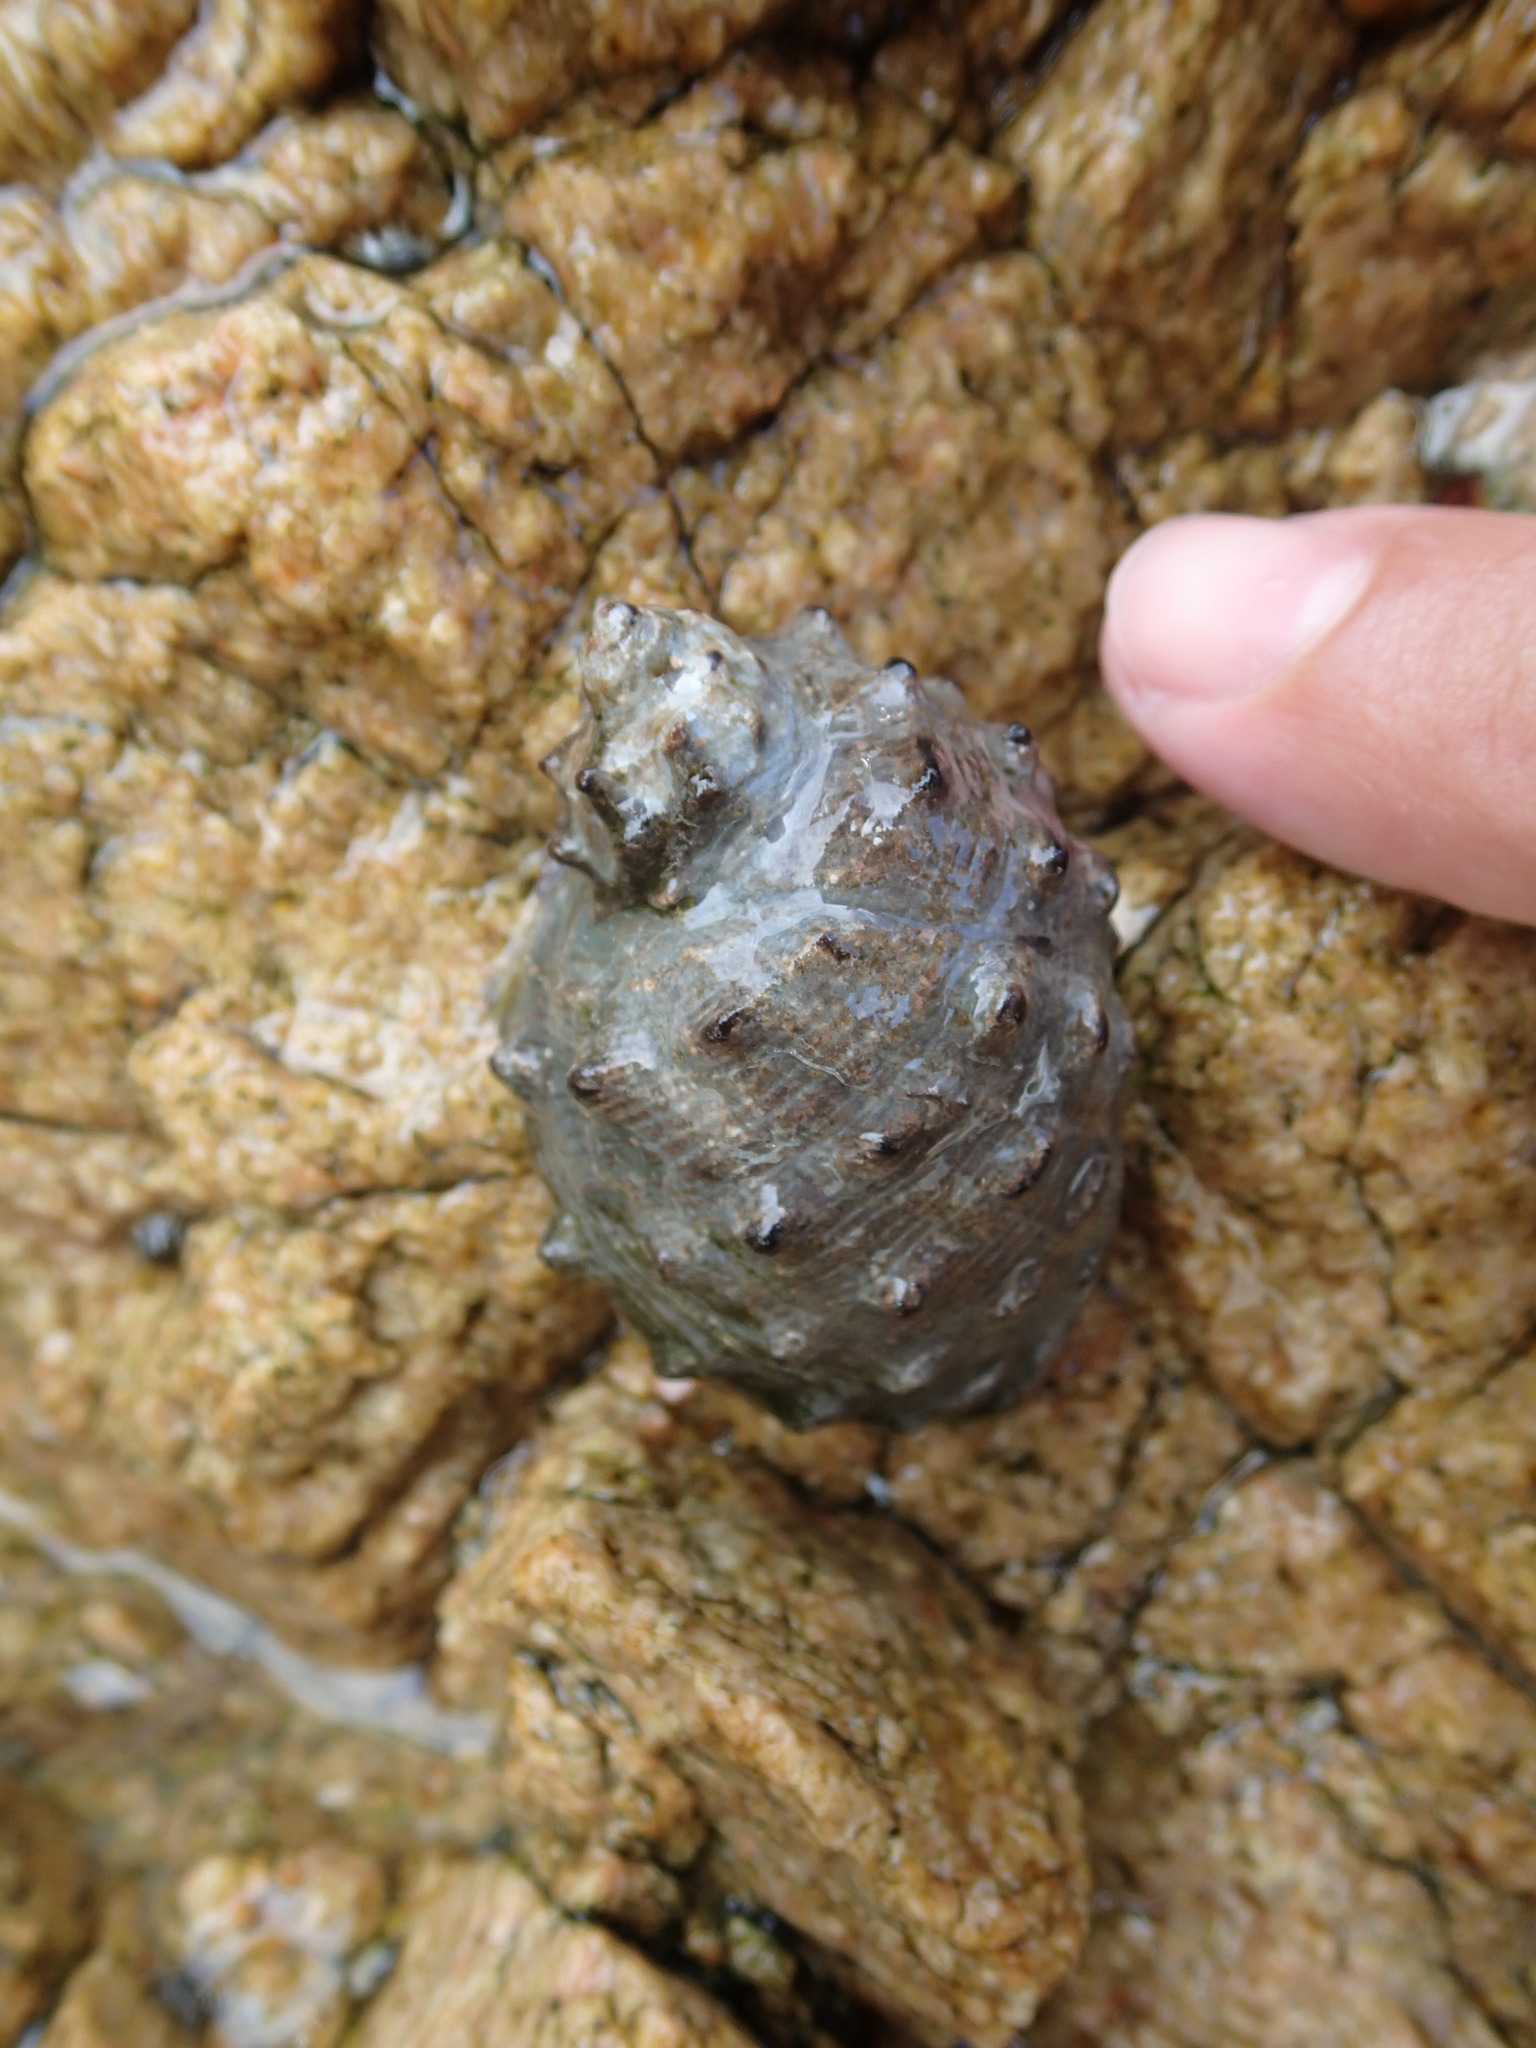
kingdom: Animalia
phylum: Mollusca
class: Gastropoda
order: Neogastropoda
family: Muricidae
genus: Plicopurpura
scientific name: Plicopurpura columellaris
